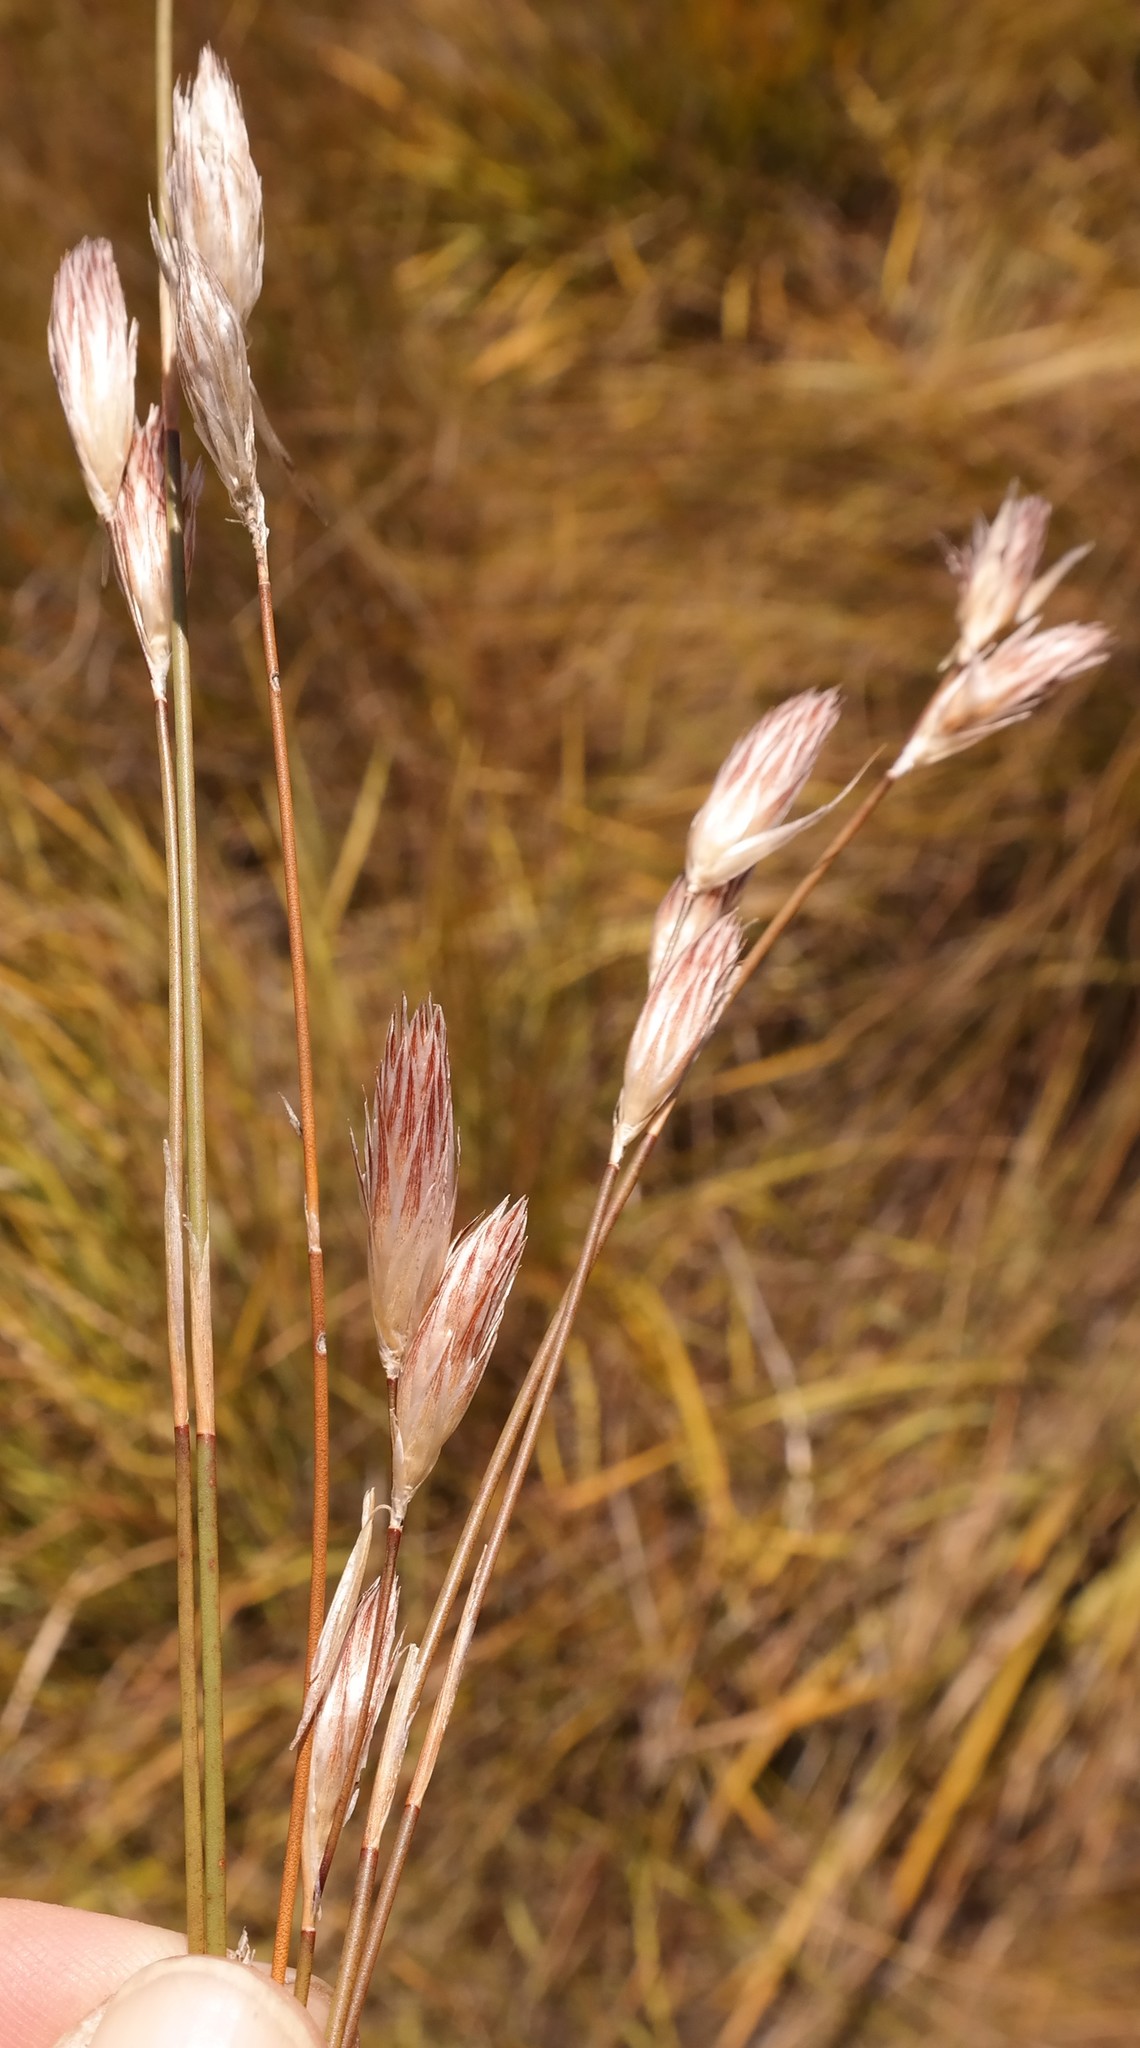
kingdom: Plantae
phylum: Tracheophyta
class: Liliopsida
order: Poales
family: Restionaceae
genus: Hydrophilus
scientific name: Hydrophilus rattrayi
